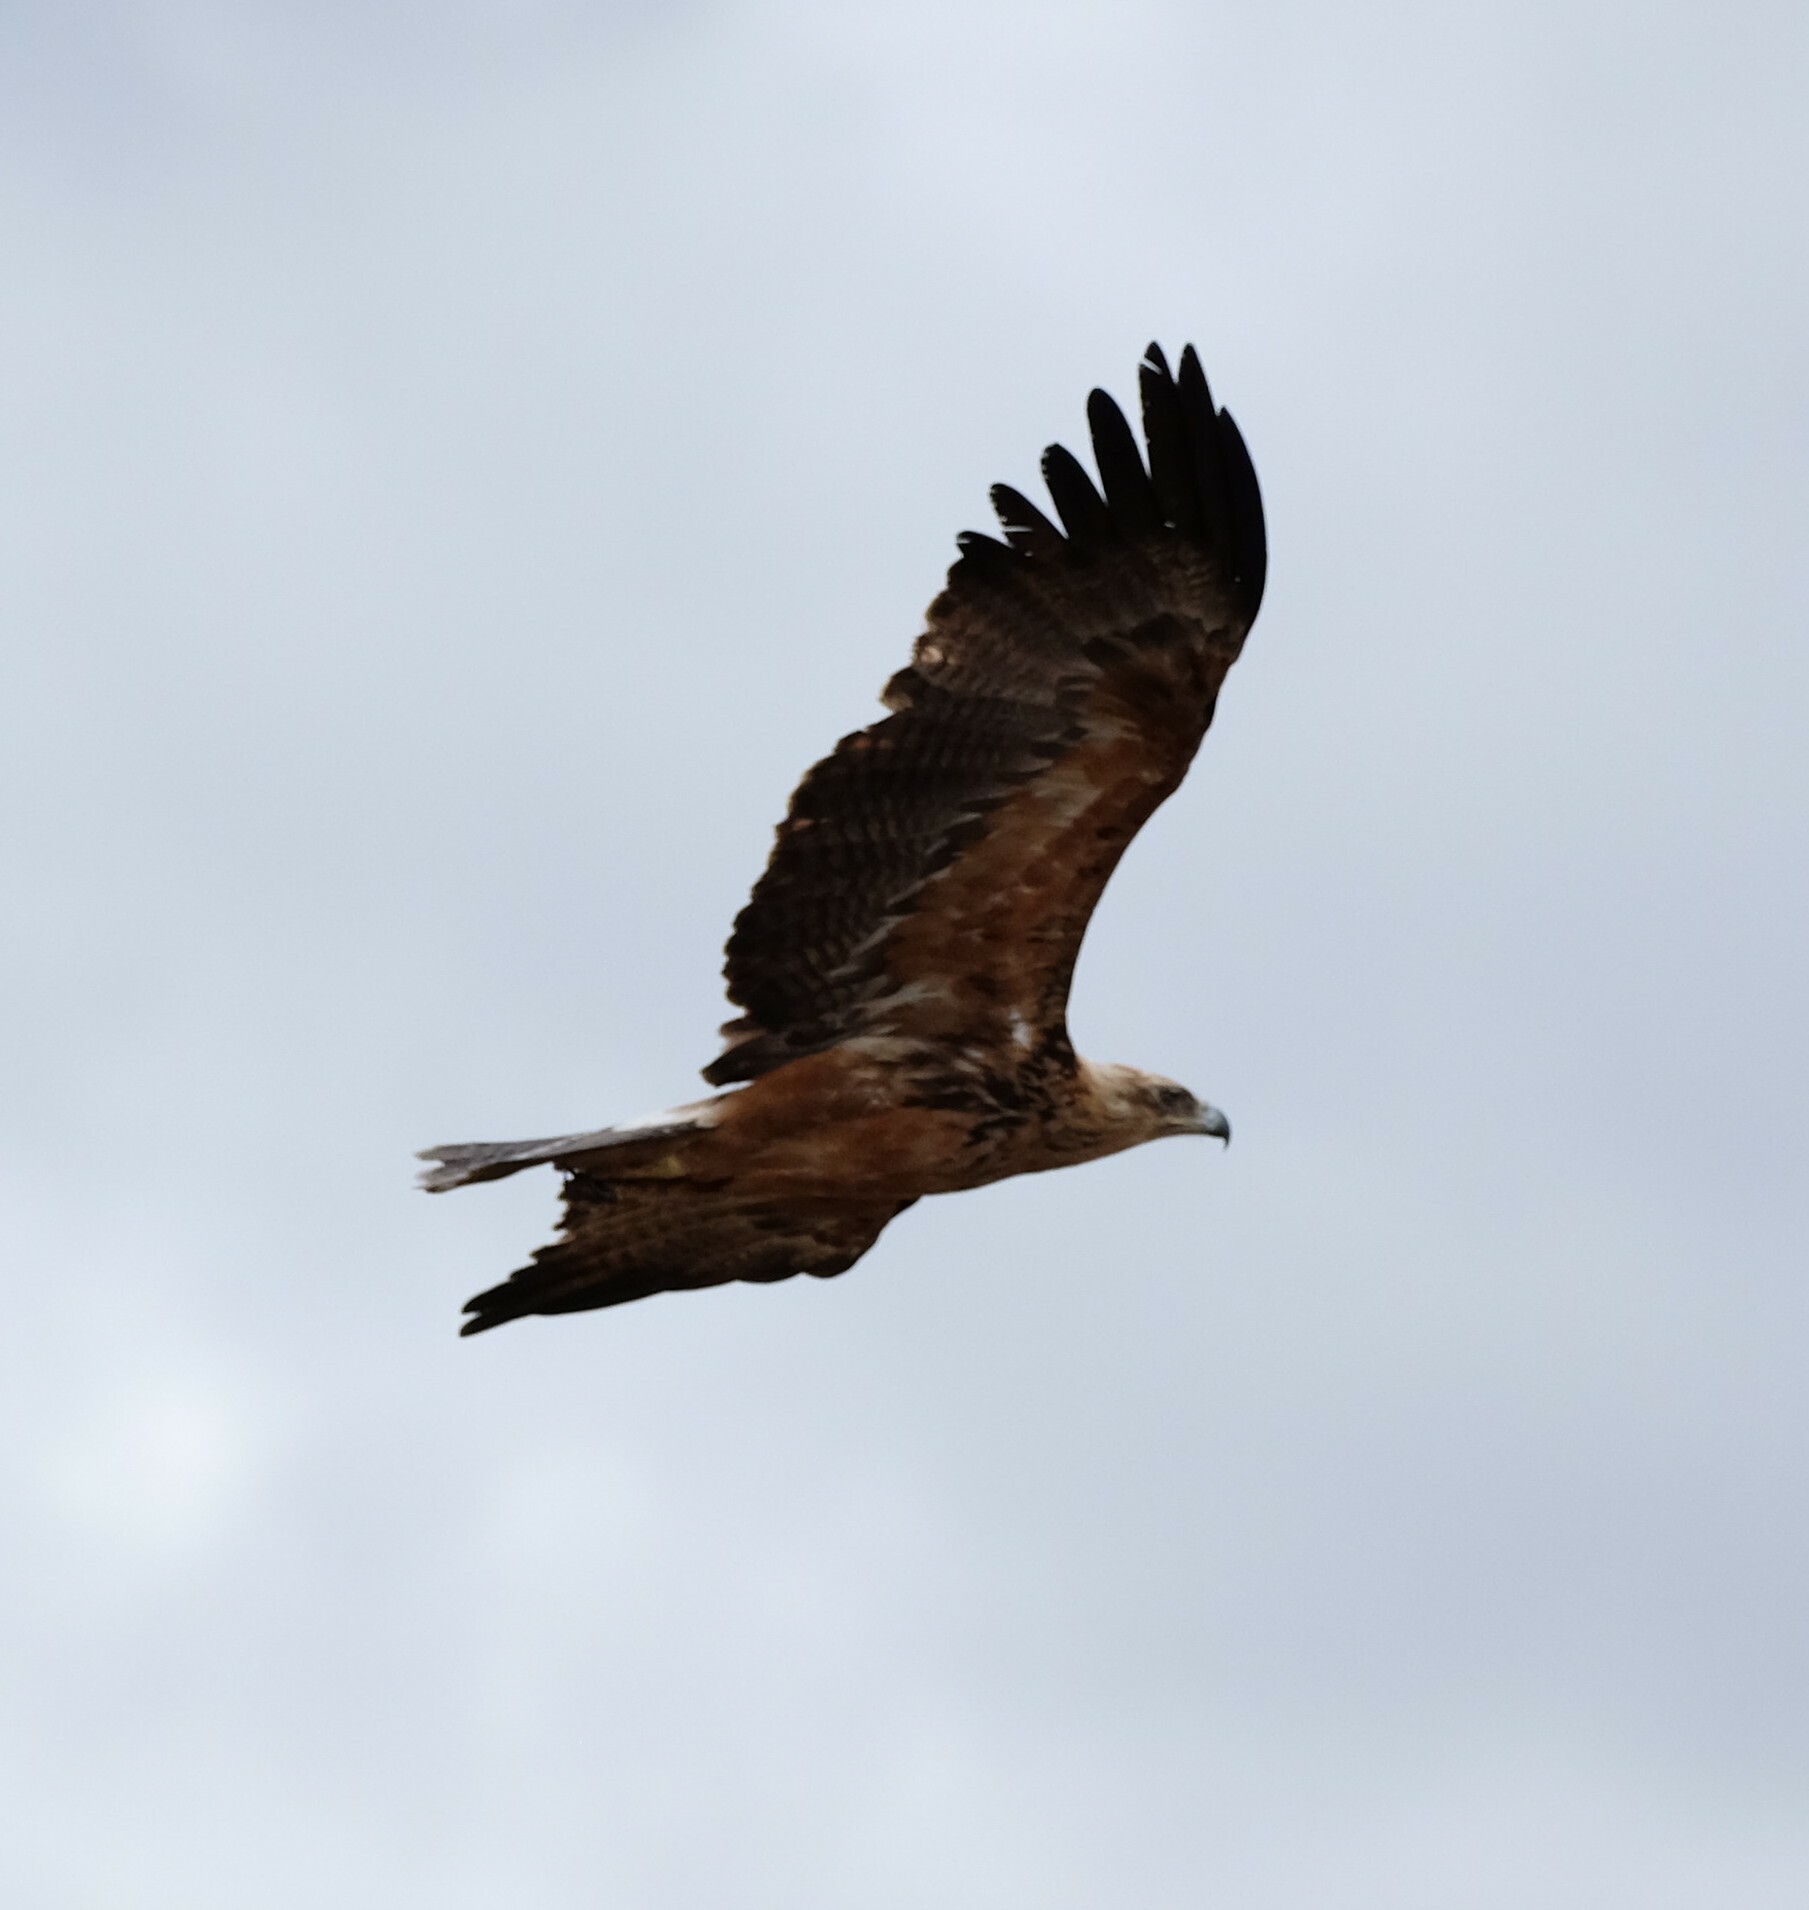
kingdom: Animalia
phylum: Chordata
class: Aves
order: Accipitriformes
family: Accipitridae
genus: Aquila
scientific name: Aquila rapax
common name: Tawny eagle
